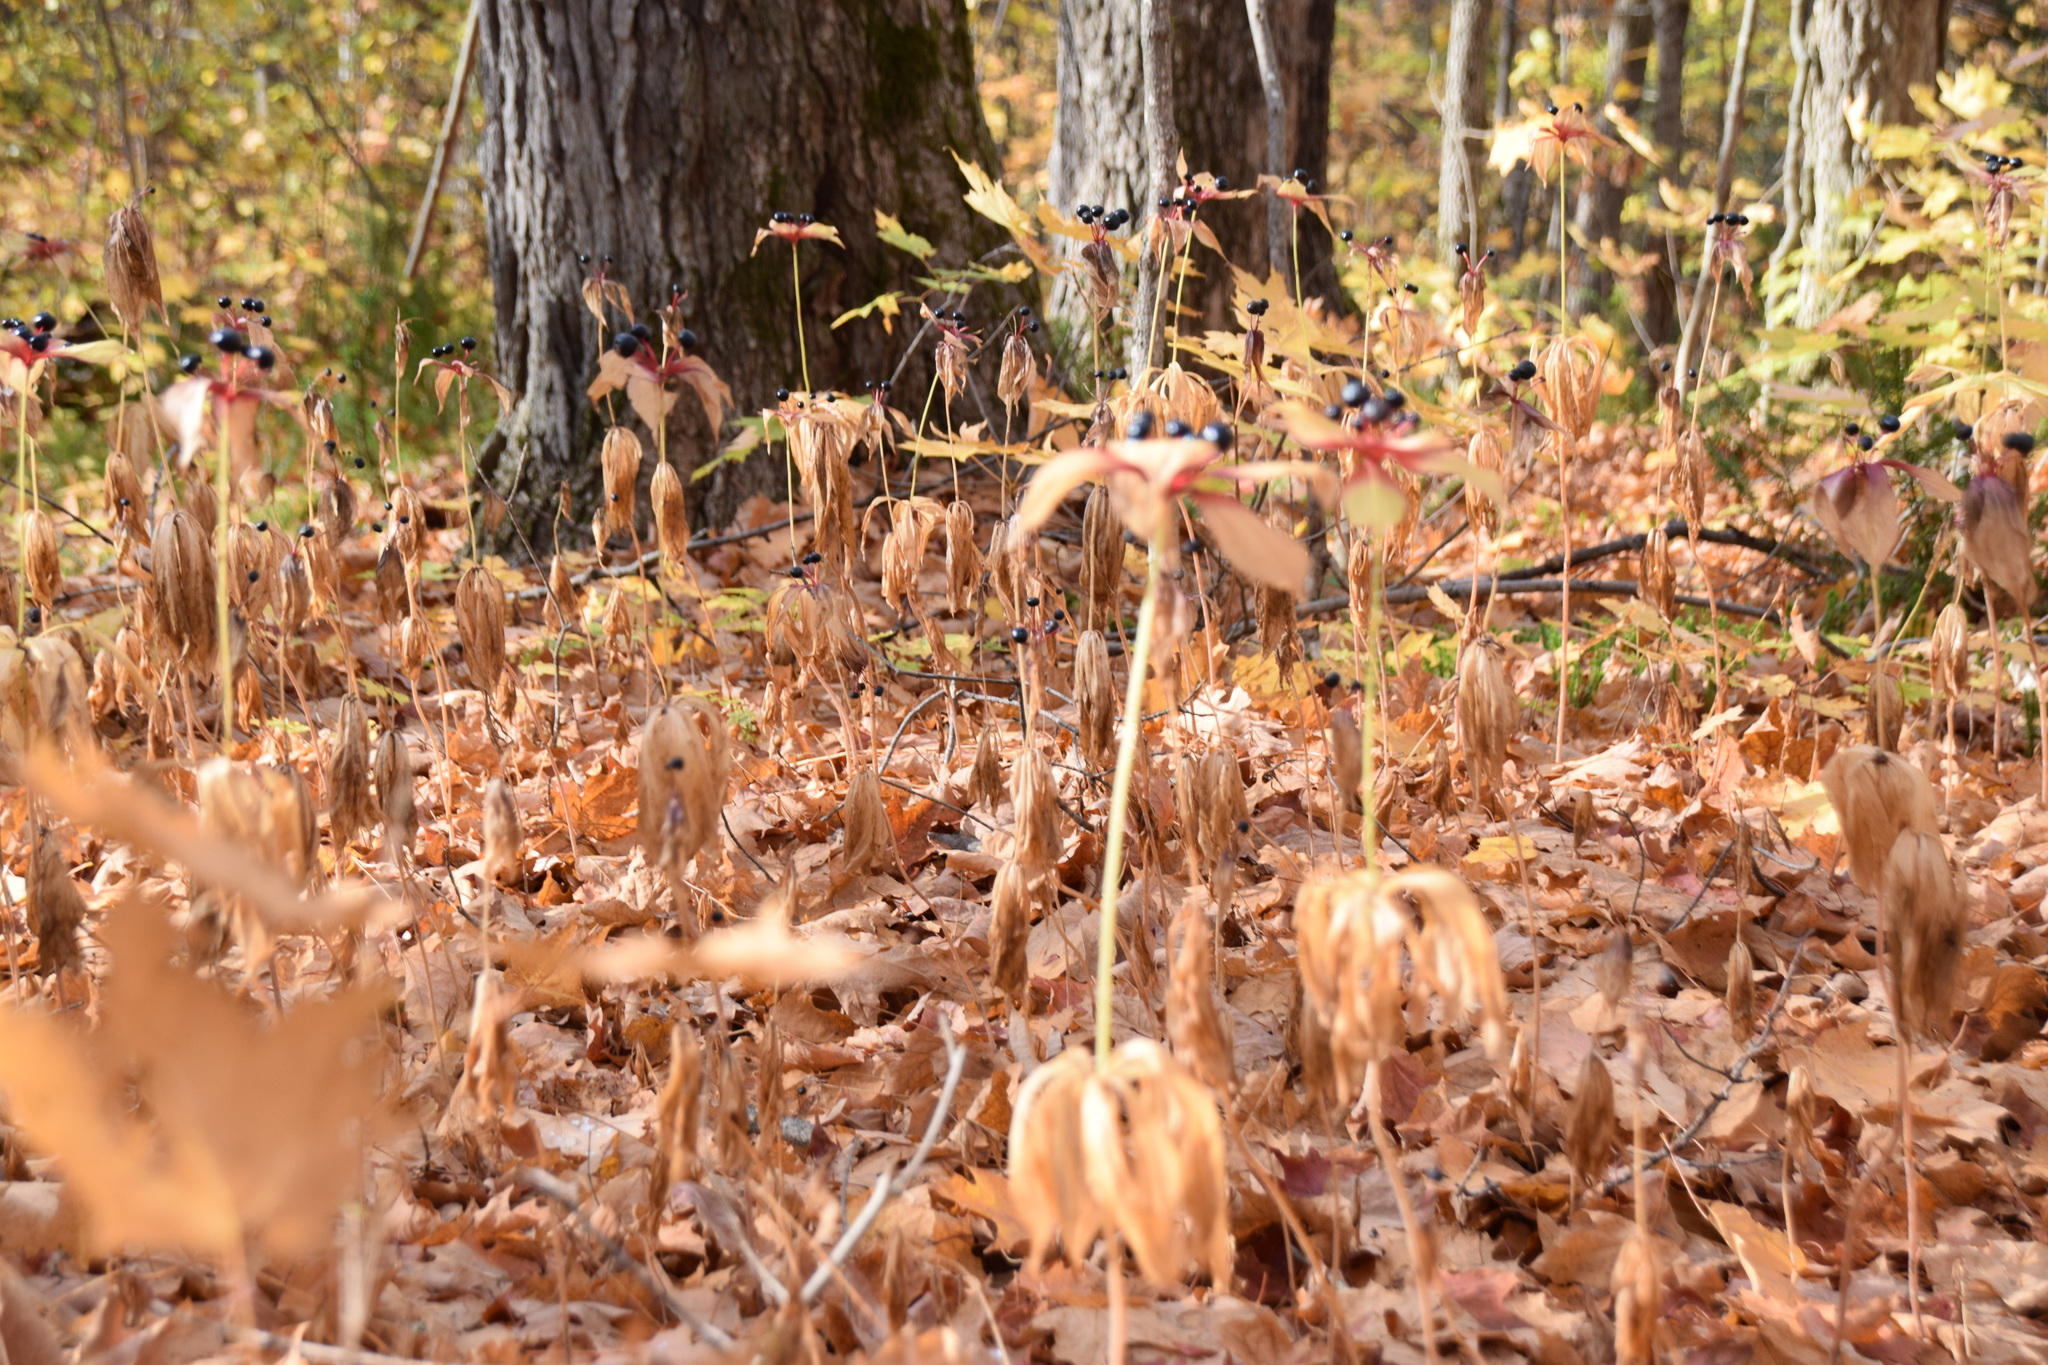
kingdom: Plantae
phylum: Tracheophyta
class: Liliopsida
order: Liliales
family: Liliaceae
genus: Medeola
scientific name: Medeola virginiana
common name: Indian cucumber-root
